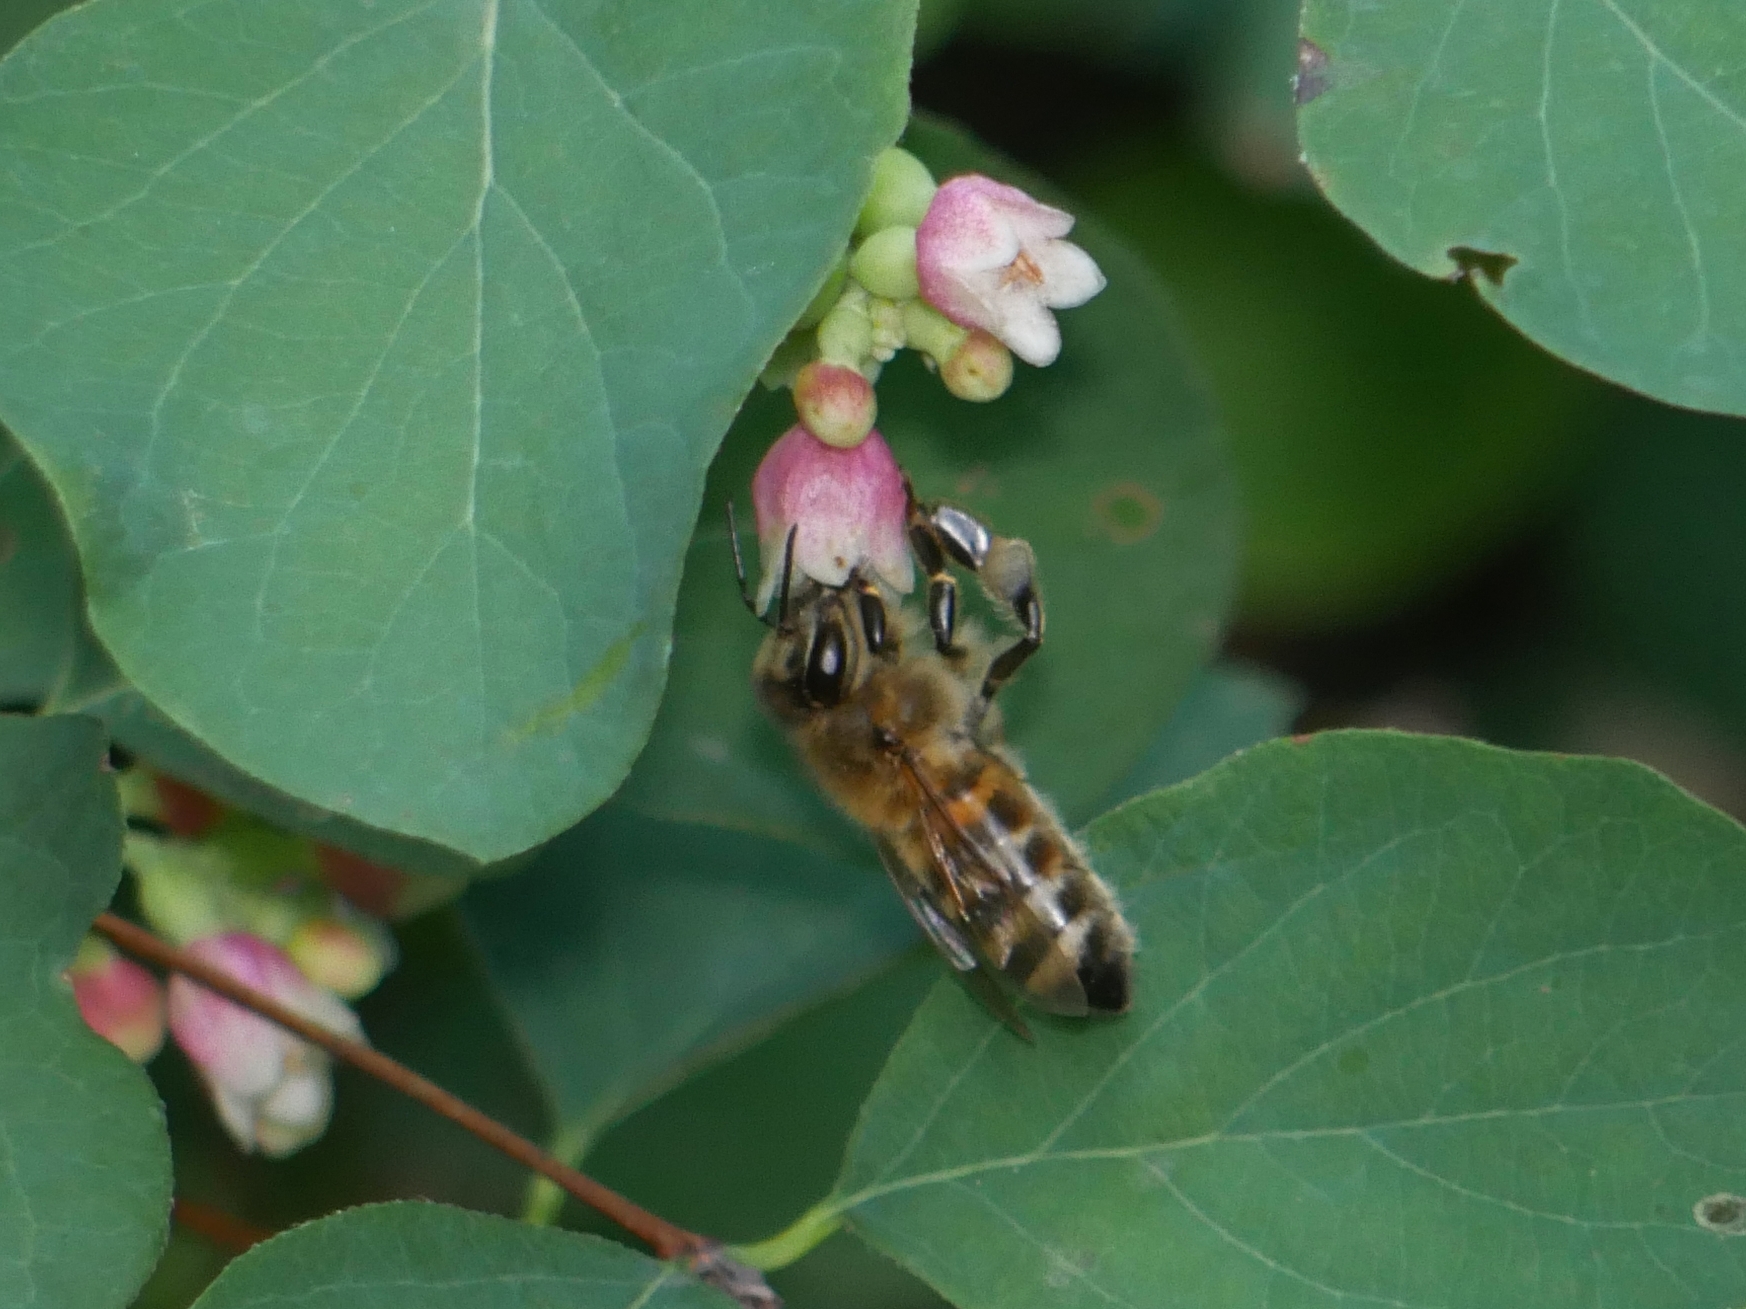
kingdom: Animalia
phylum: Arthropoda
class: Insecta
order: Hymenoptera
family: Apidae
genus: Apis
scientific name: Apis mellifera
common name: Honey bee
